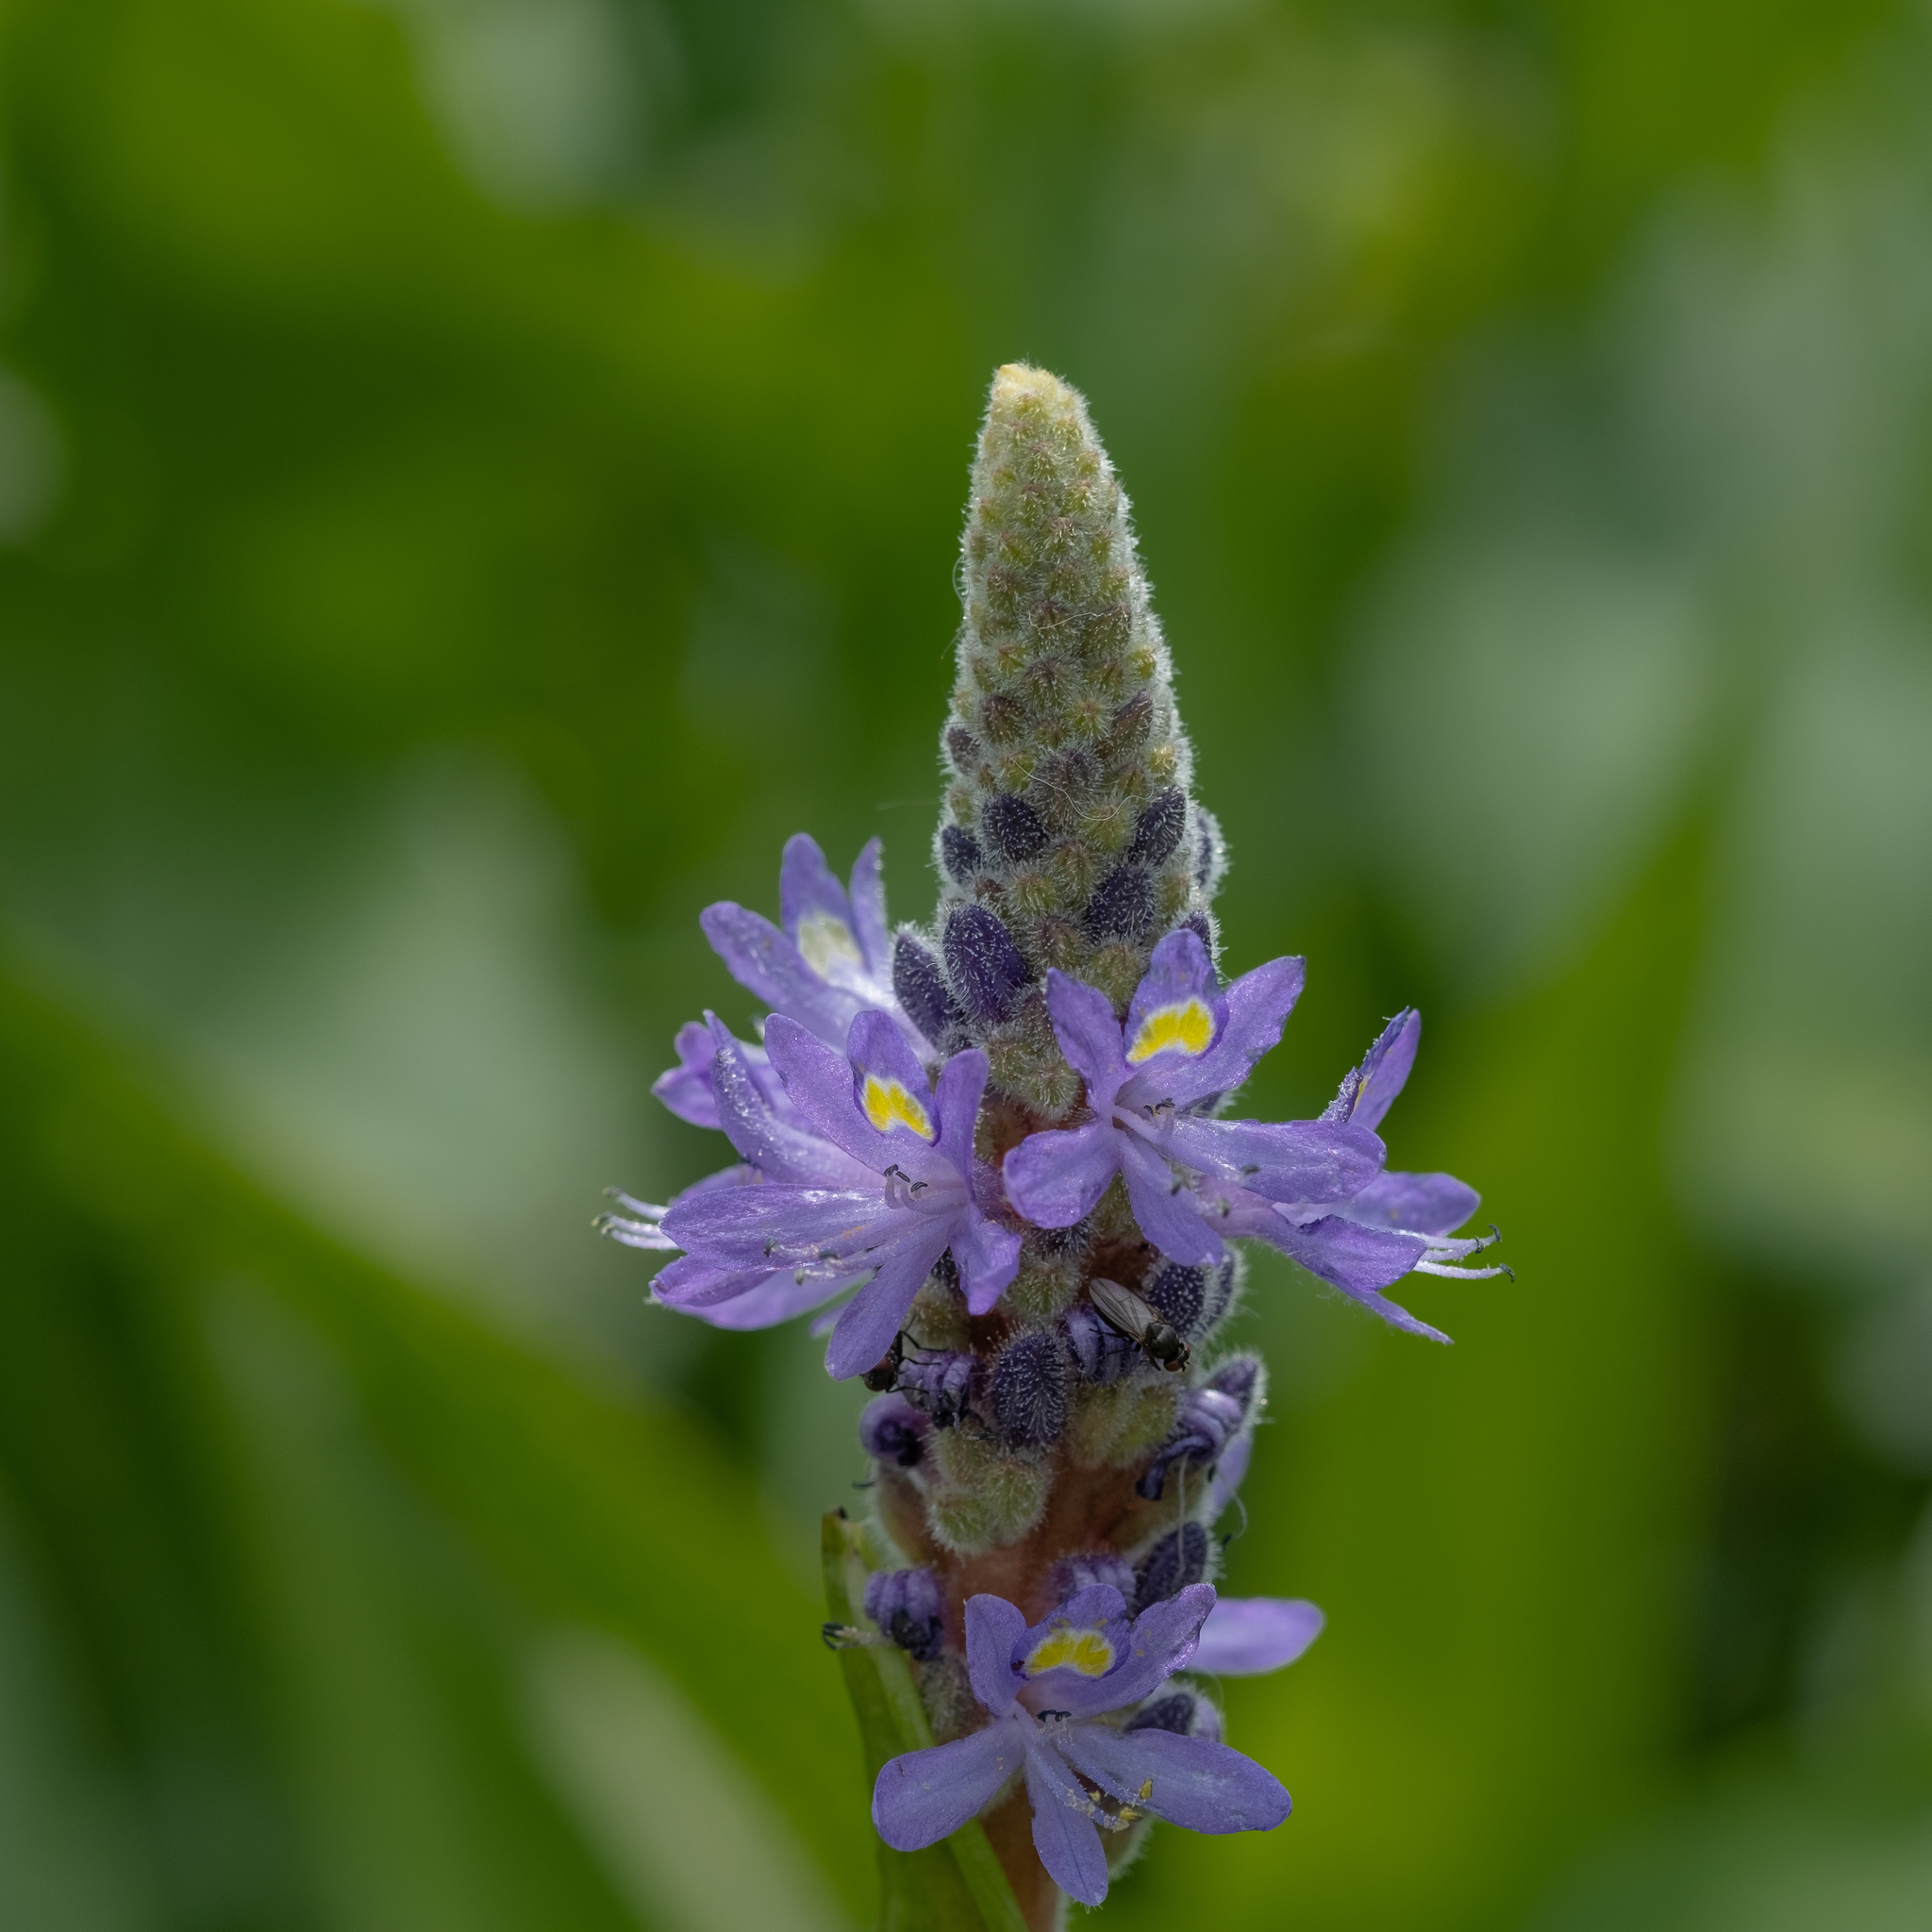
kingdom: Plantae
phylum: Tracheophyta
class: Liliopsida
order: Commelinales
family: Pontederiaceae
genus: Pontederia
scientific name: Pontederia cordata
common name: Pickerelweed
